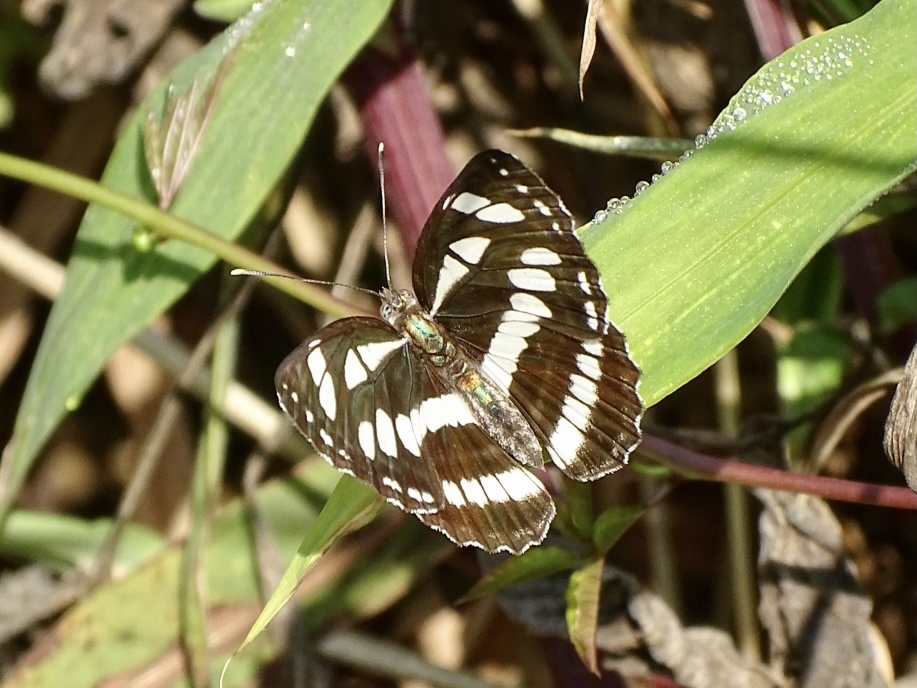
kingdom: Animalia
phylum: Arthropoda
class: Insecta
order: Lepidoptera
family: Nymphalidae
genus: Neptis
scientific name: Neptis hylas
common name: Common sailer
